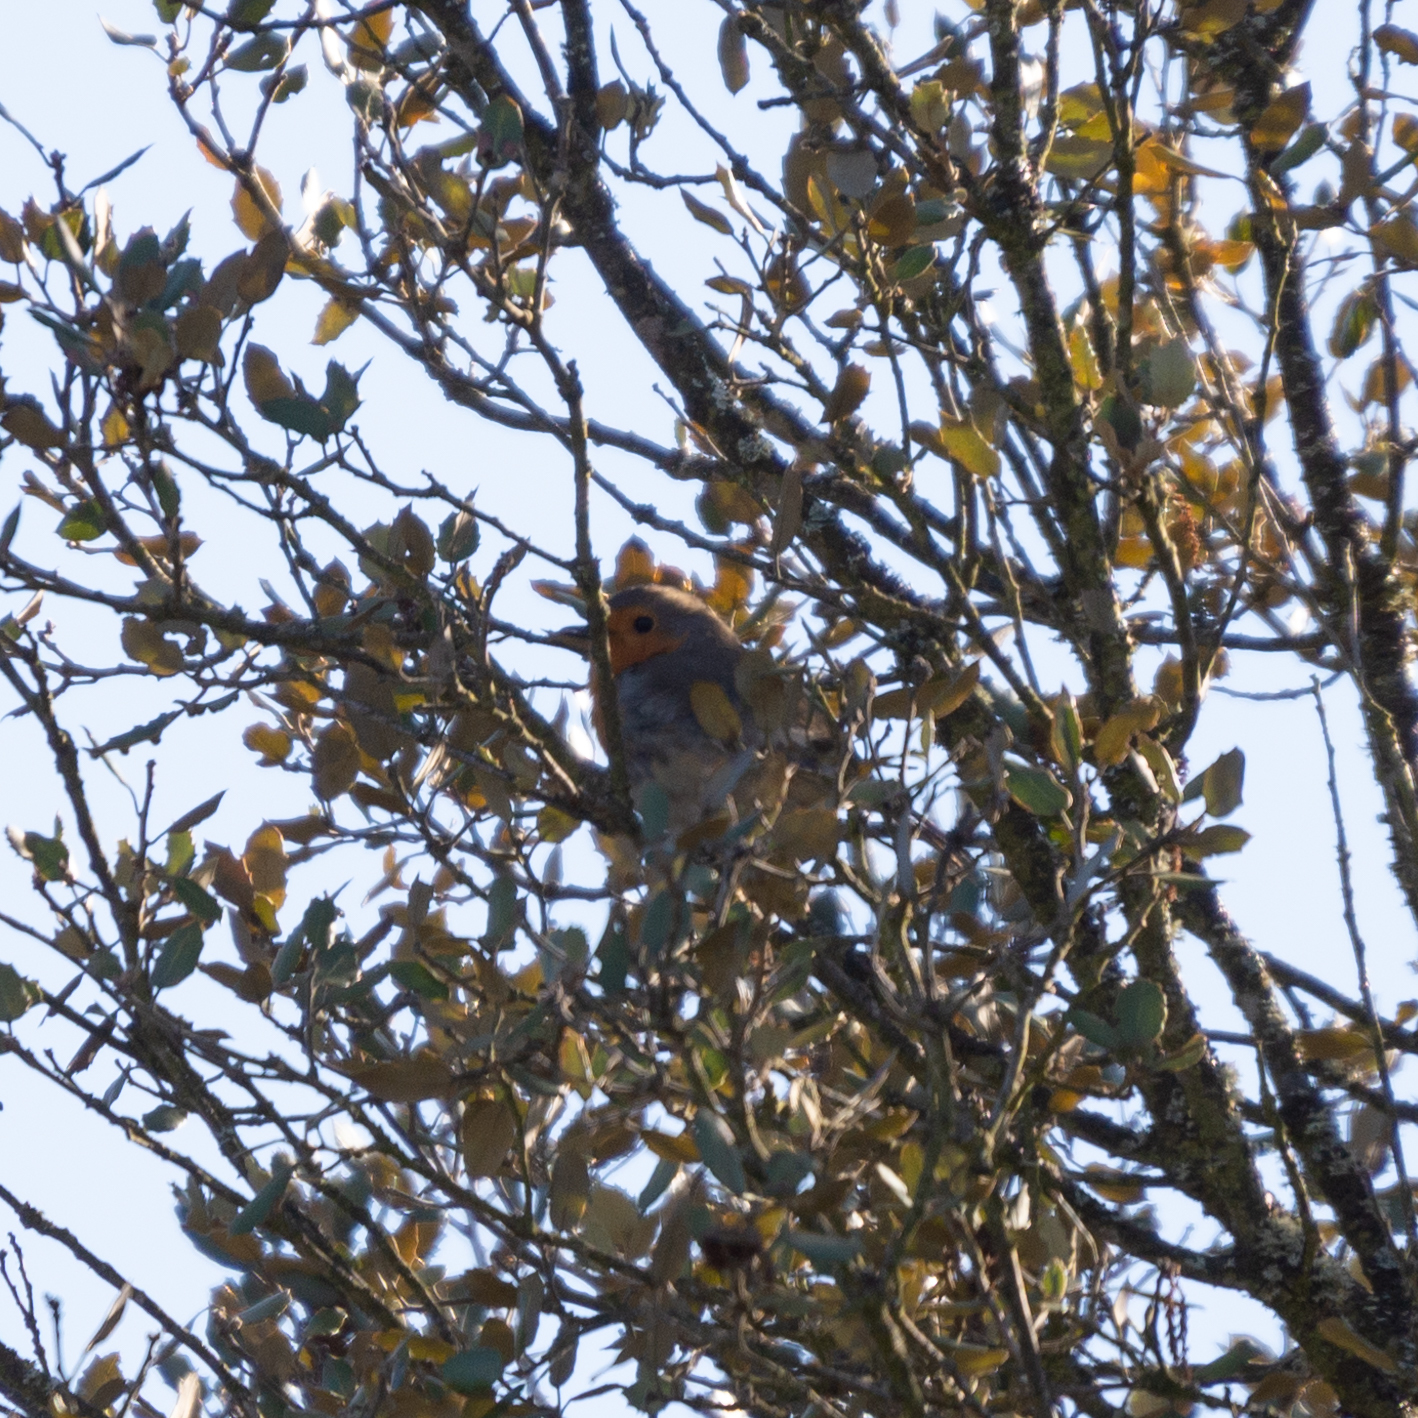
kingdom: Animalia
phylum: Chordata
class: Aves
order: Passeriformes
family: Muscicapidae
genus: Erithacus
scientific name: Erithacus rubecula
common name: European robin
